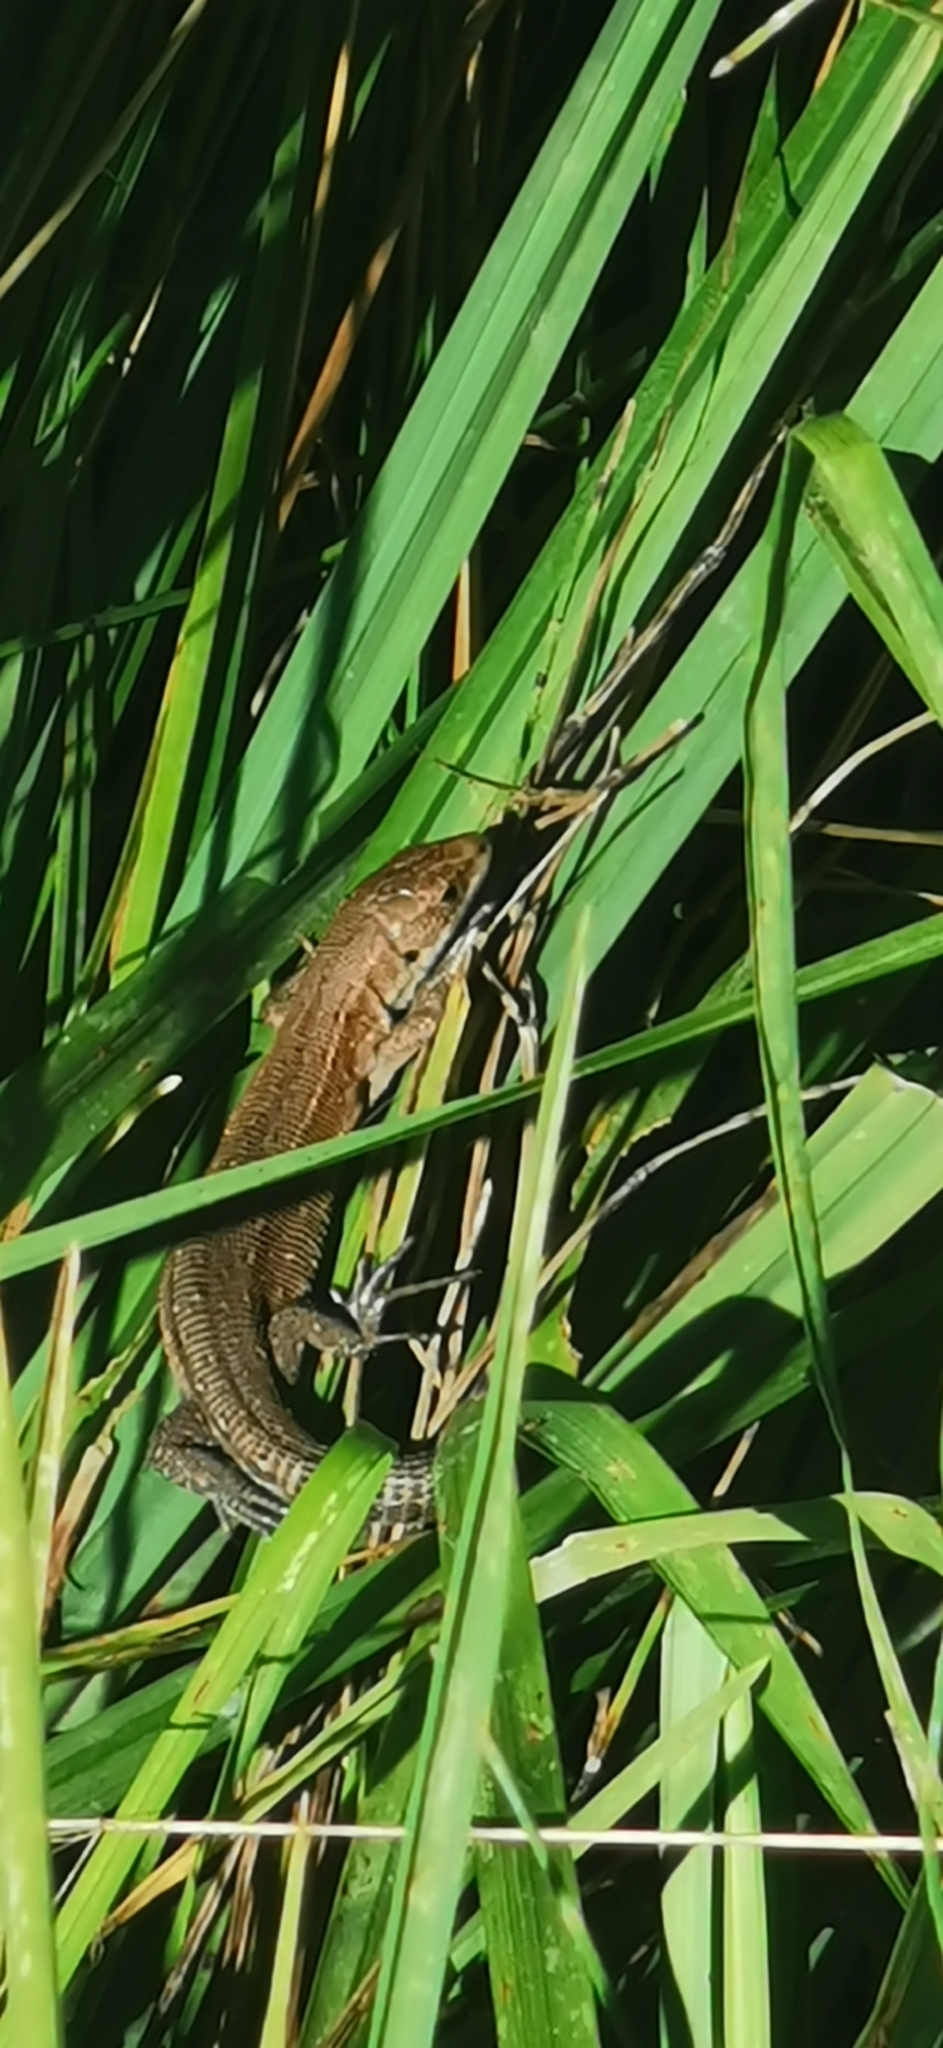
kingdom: Animalia
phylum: Chordata
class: Squamata
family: Lacertidae
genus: Zootoca
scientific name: Zootoca vivipara
